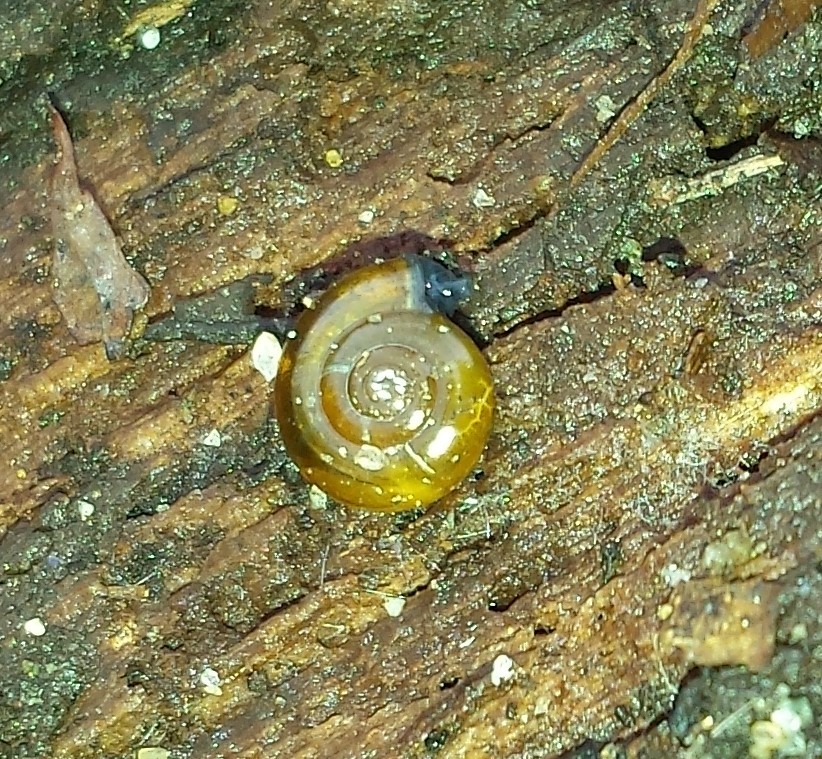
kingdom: Animalia
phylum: Mollusca
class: Gastropoda
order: Stylommatophora
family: Oxychilidae
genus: Oxychilus
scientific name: Oxychilus draparnaudi
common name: Draparnaud's glass snail
